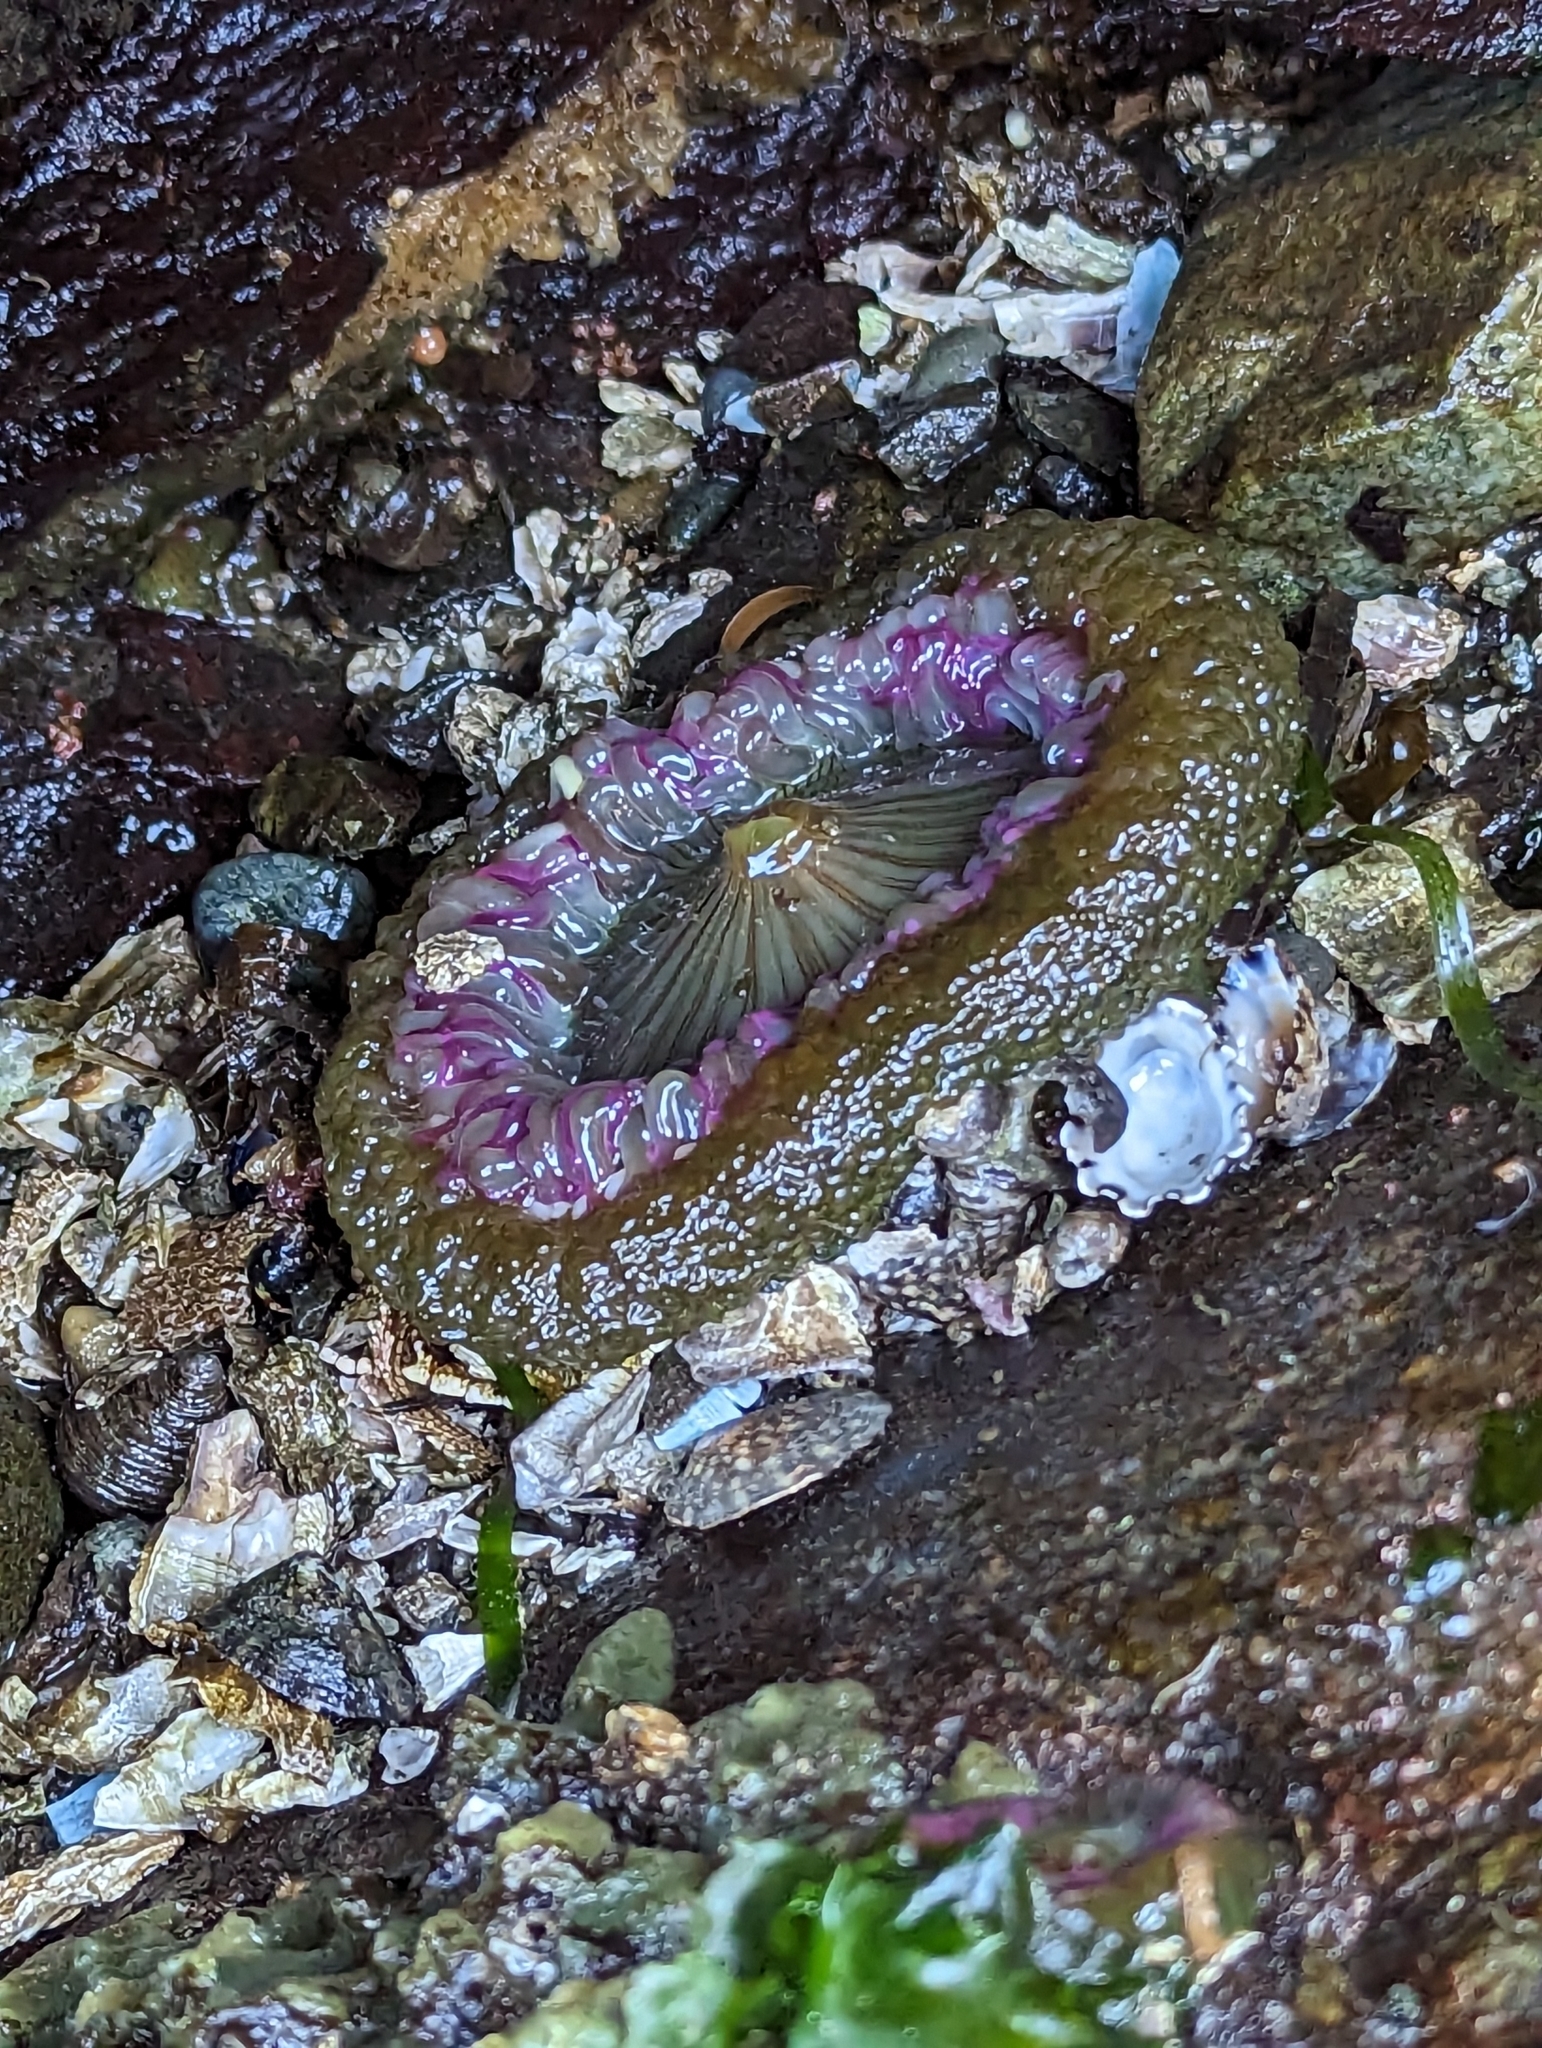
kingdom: Animalia
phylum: Cnidaria
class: Anthozoa
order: Actiniaria
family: Actiniidae
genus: Anthopleura
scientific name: Anthopleura elegantissima
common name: Clonal anemone
